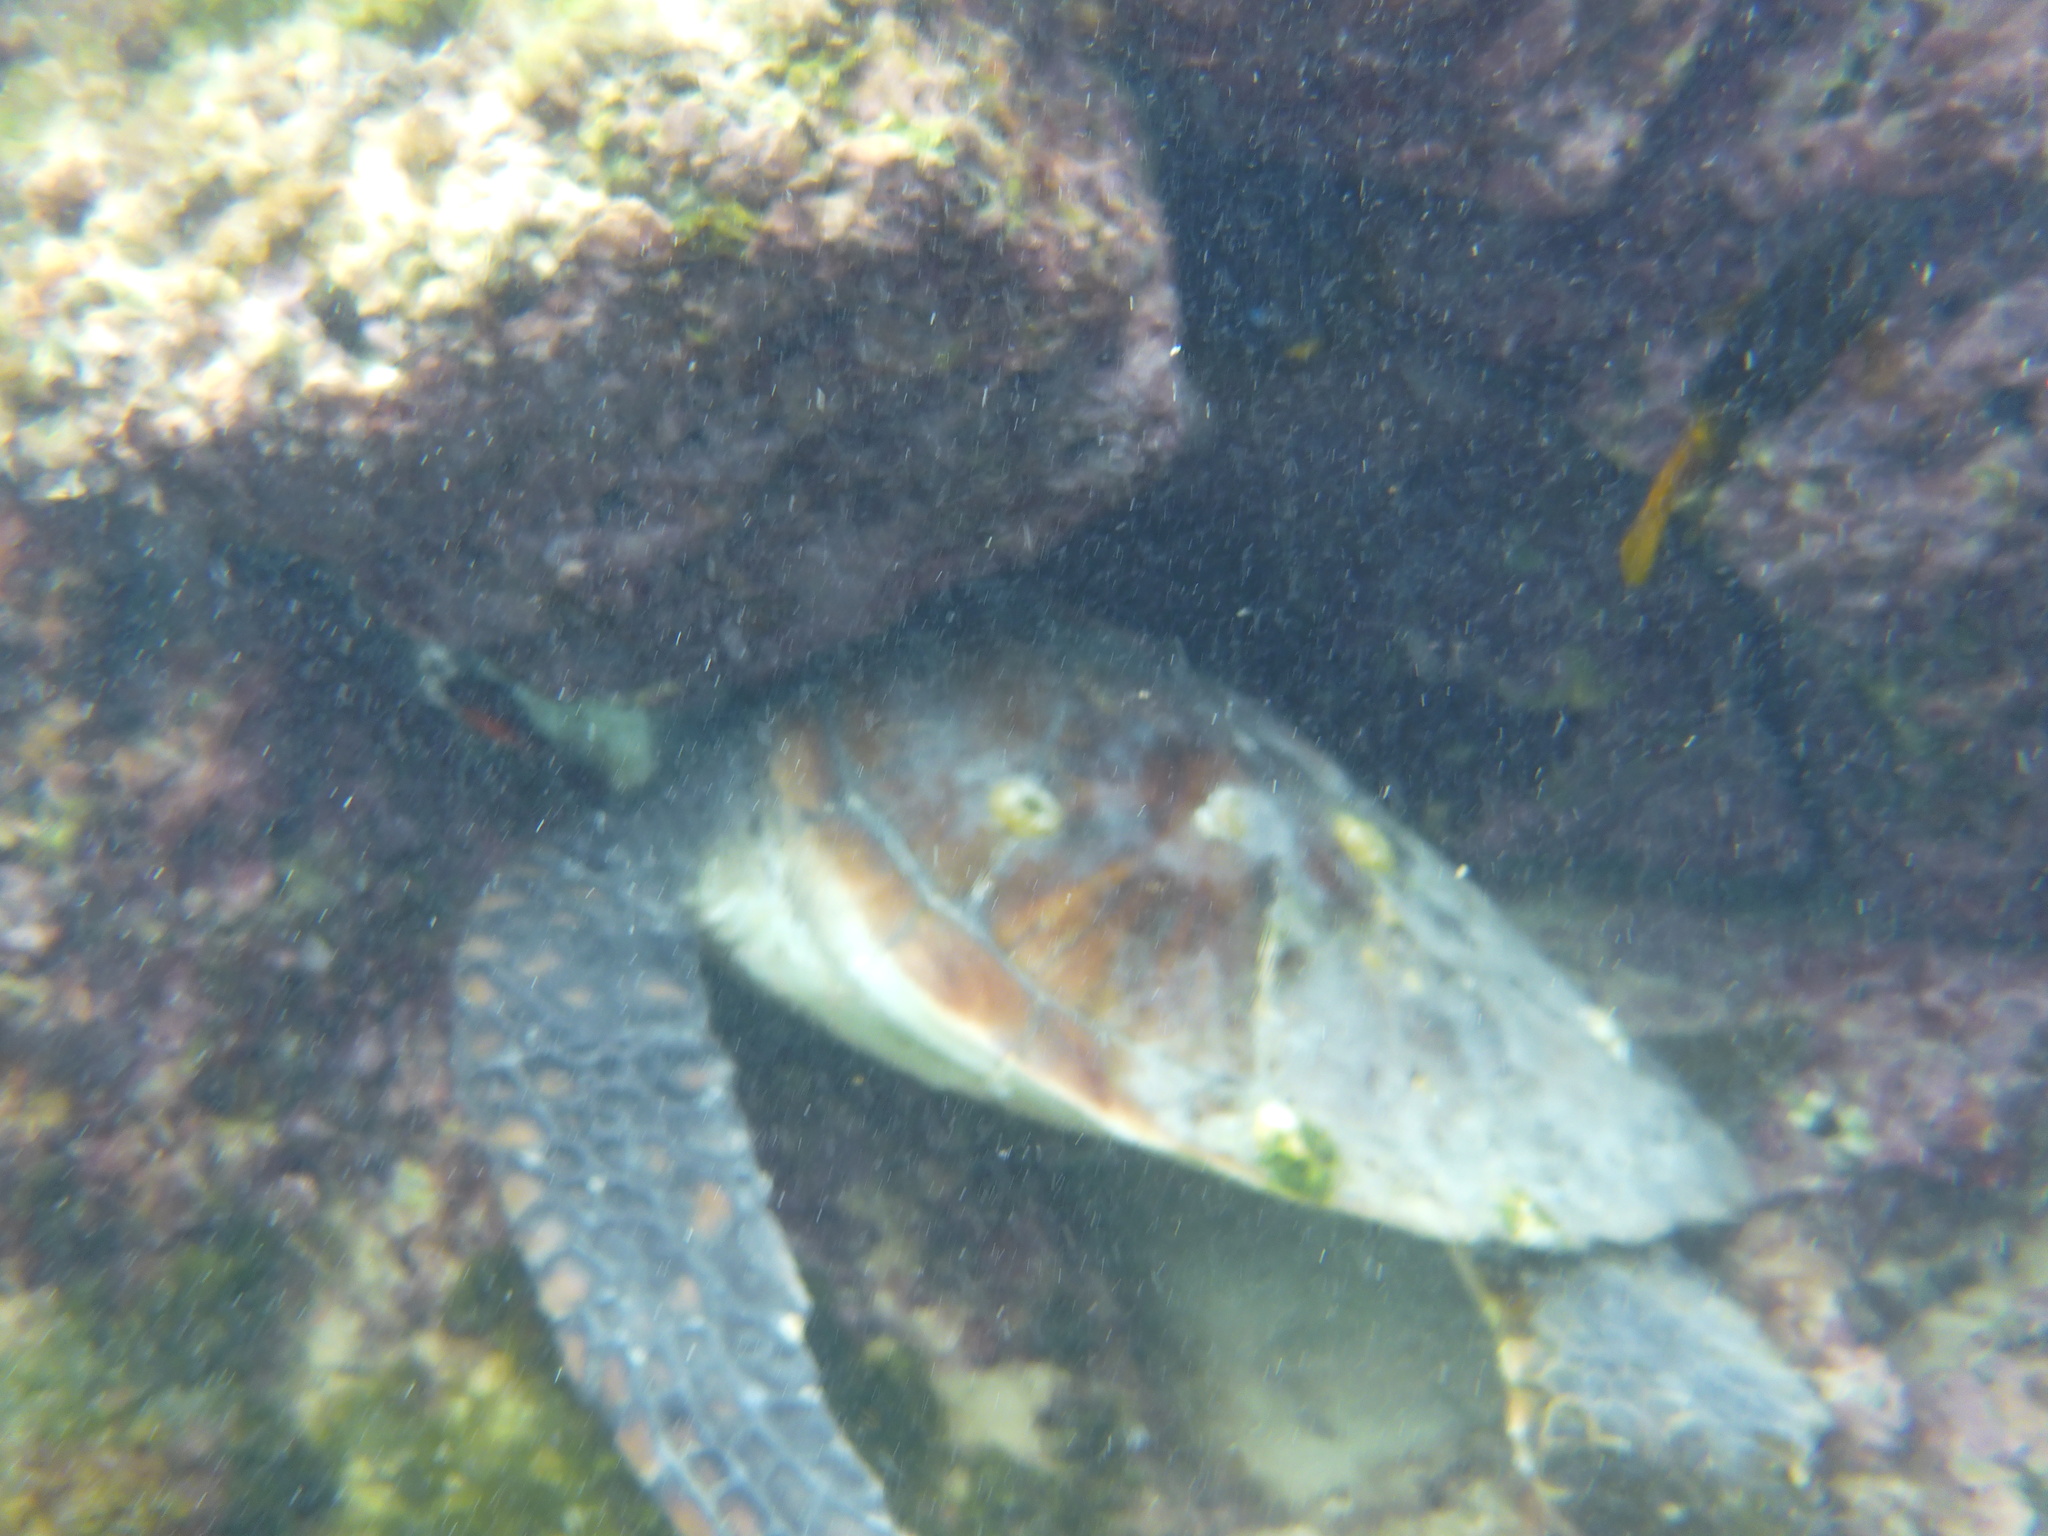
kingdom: Animalia
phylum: Chordata
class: Testudines
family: Cheloniidae
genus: Chelonia
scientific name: Chelonia mydas
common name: Green turtle
